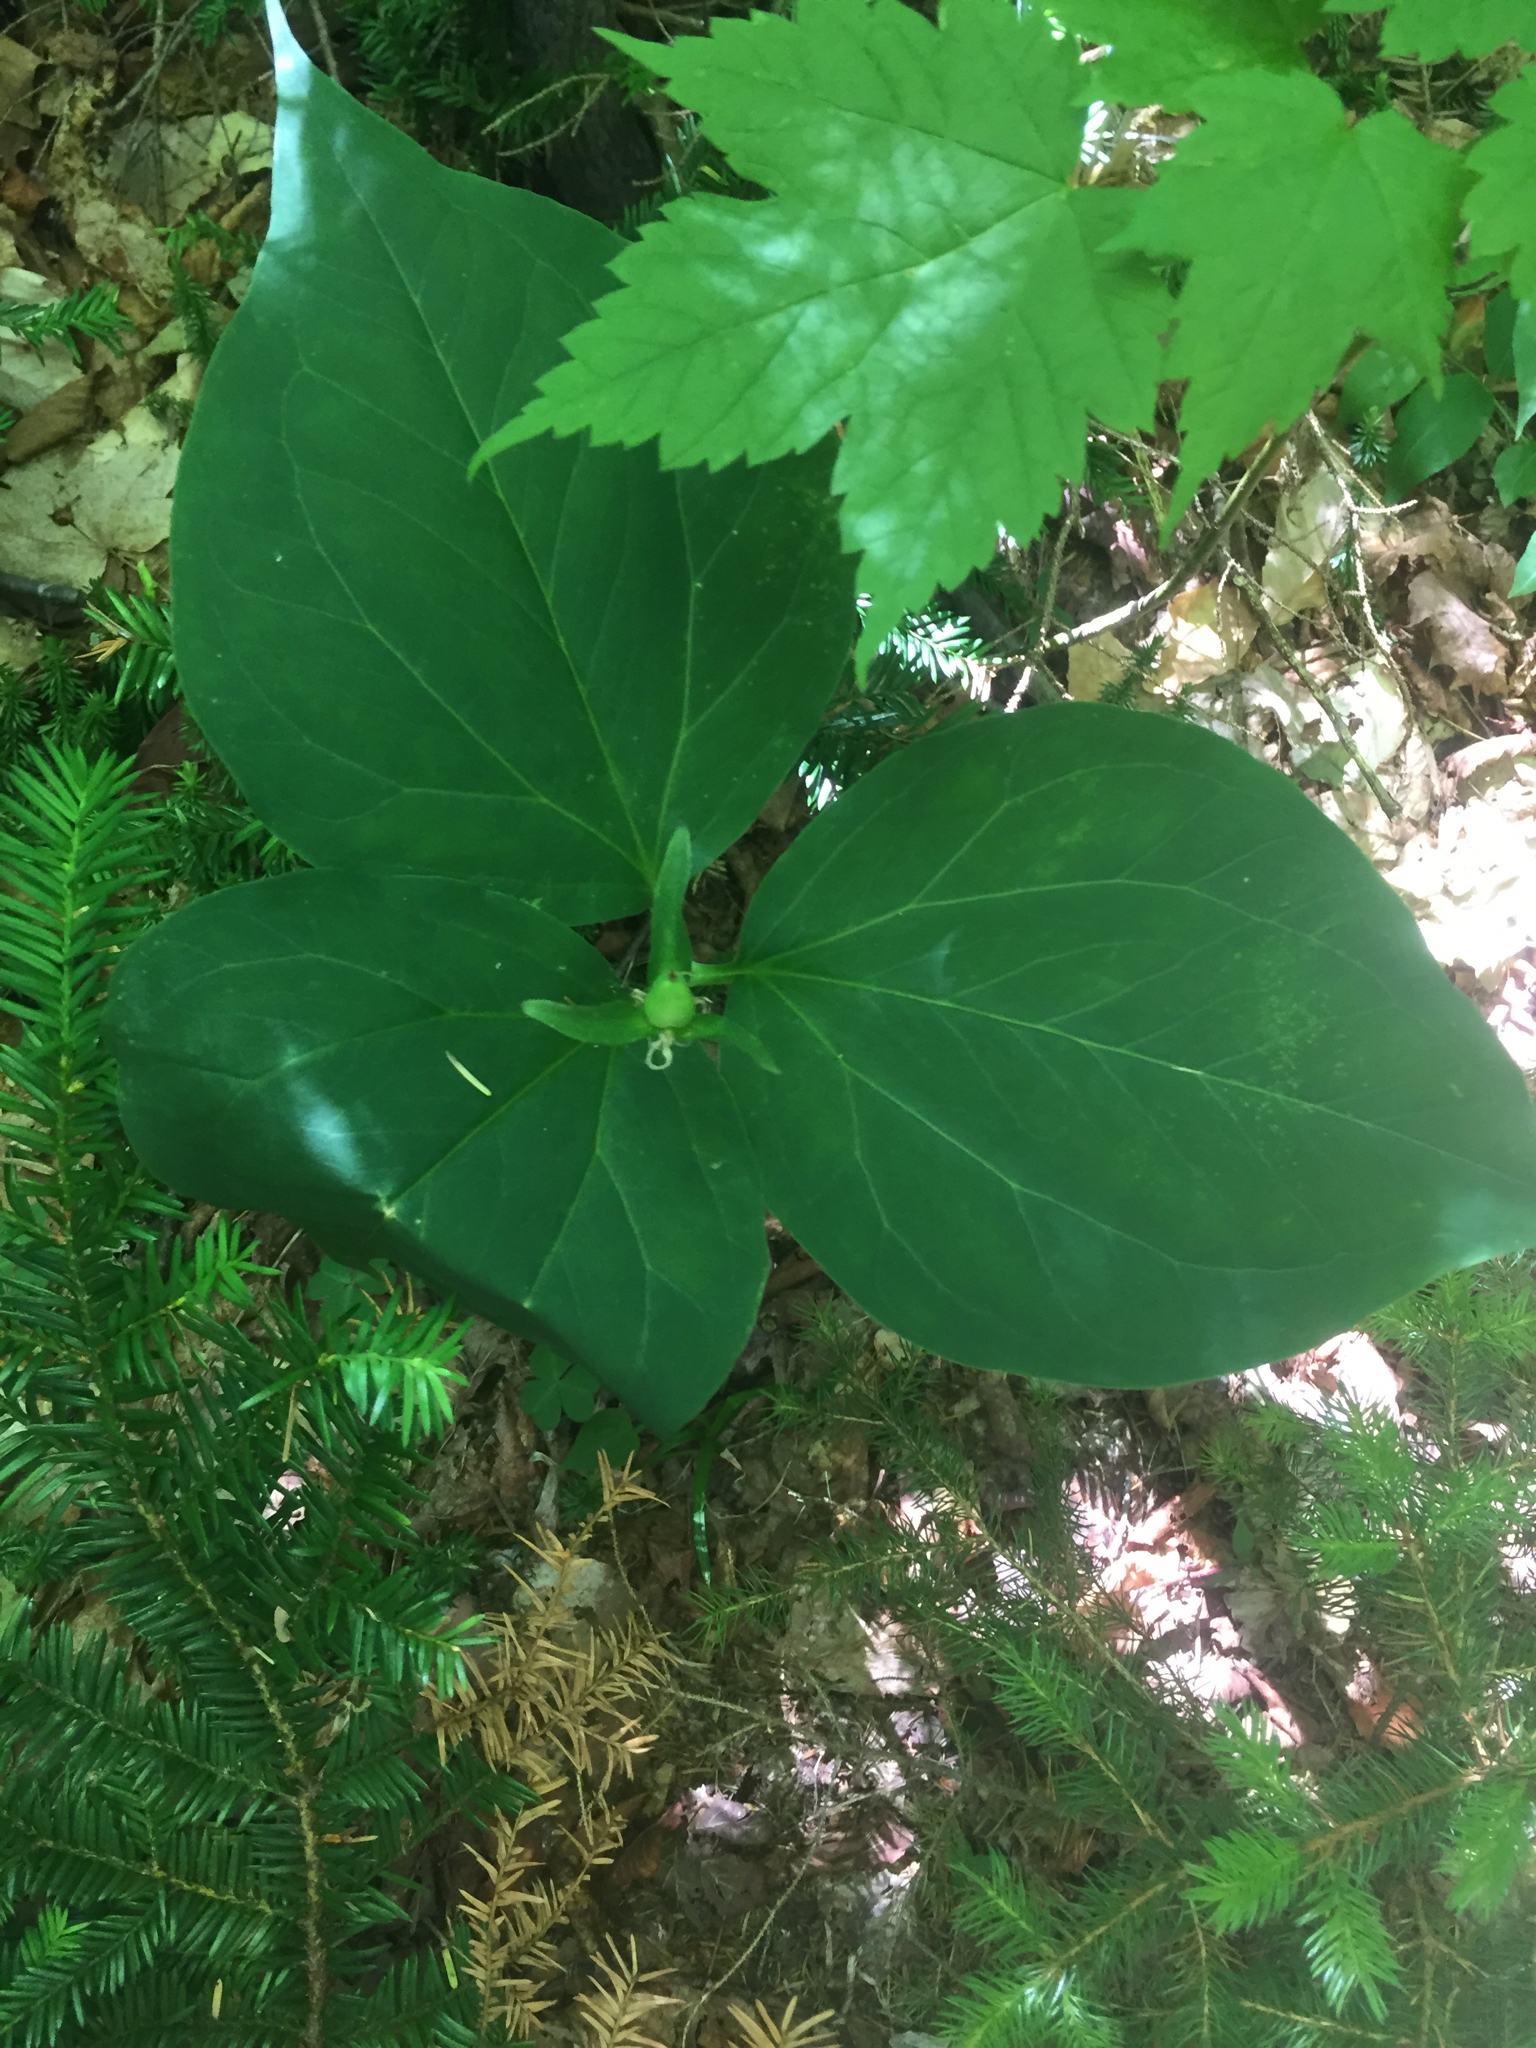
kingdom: Plantae
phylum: Tracheophyta
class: Liliopsida
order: Liliales
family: Melanthiaceae
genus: Trillium
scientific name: Trillium undulatum
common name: Paint trillium
